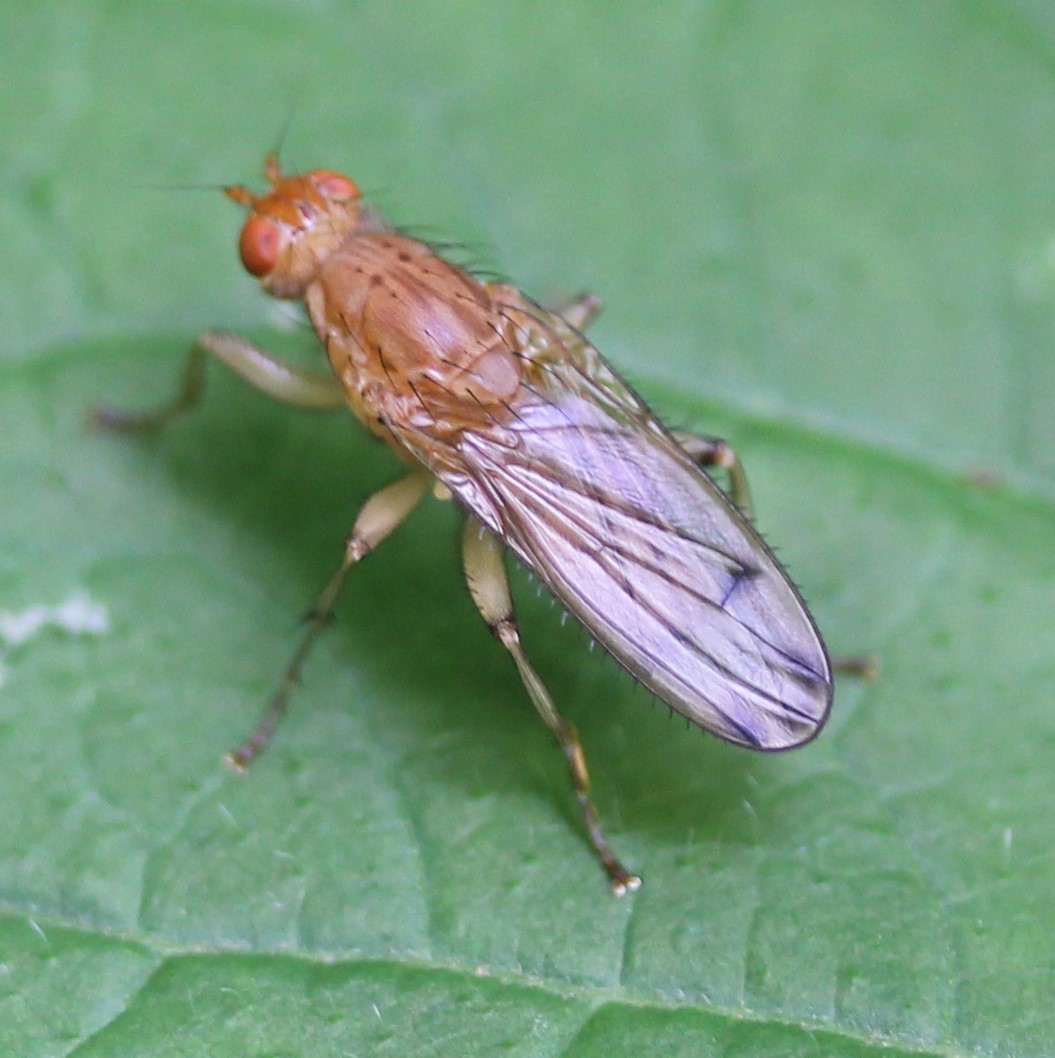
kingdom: Animalia
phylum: Arthropoda
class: Insecta
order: Diptera
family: Heleomyzidae
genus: Amoebaleria
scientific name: Amoebaleria helvola
